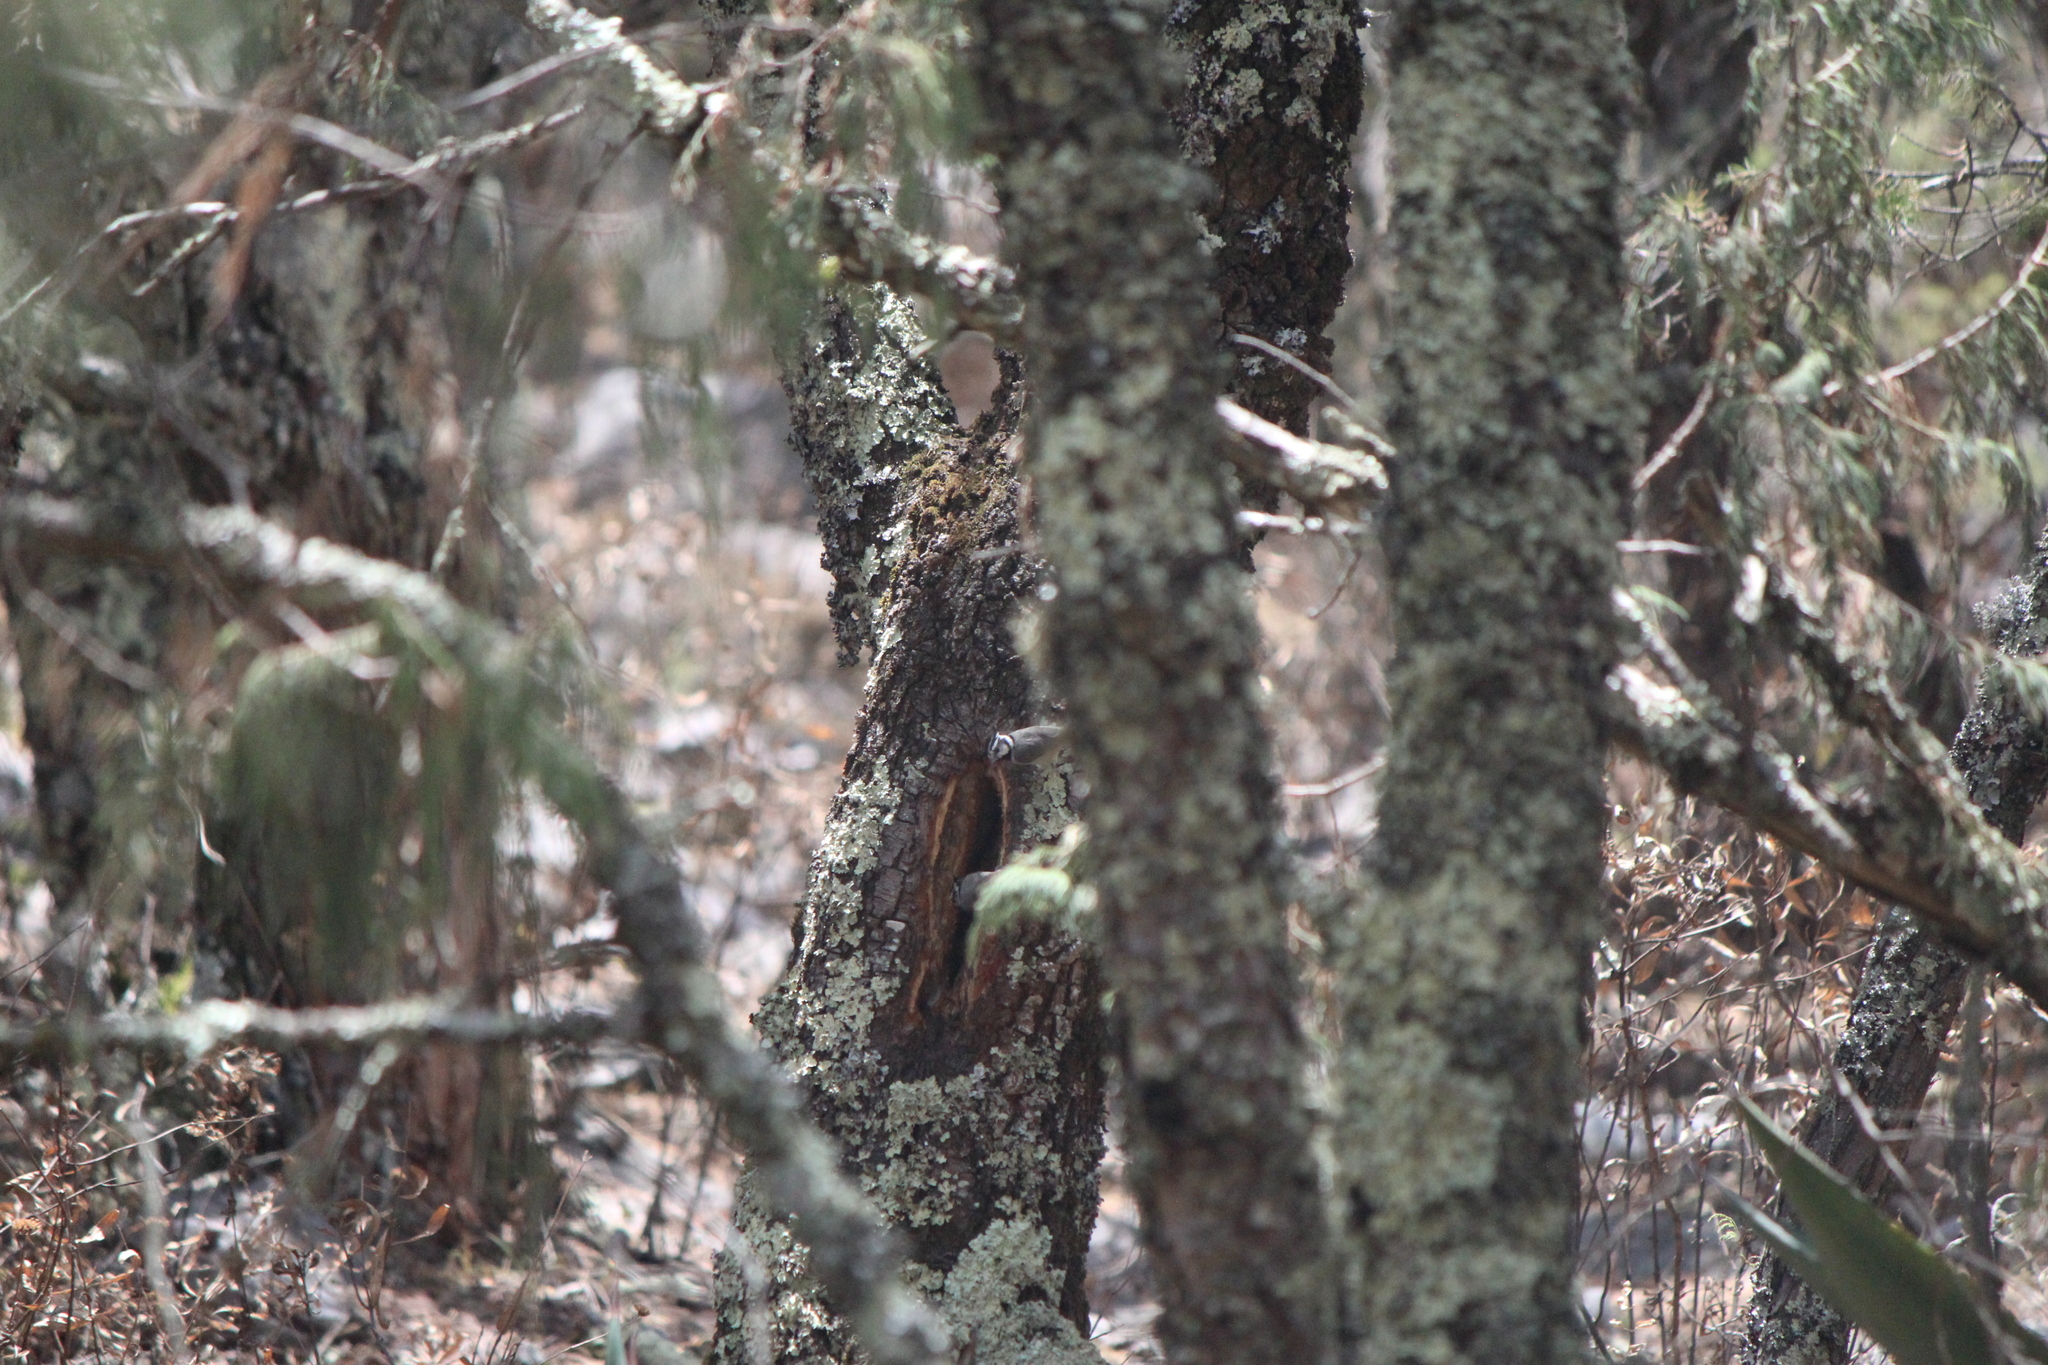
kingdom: Animalia
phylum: Chordata
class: Aves
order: Passeriformes
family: Paridae
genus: Baeolophus
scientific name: Baeolophus wollweberi
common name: Bridled titmouse
